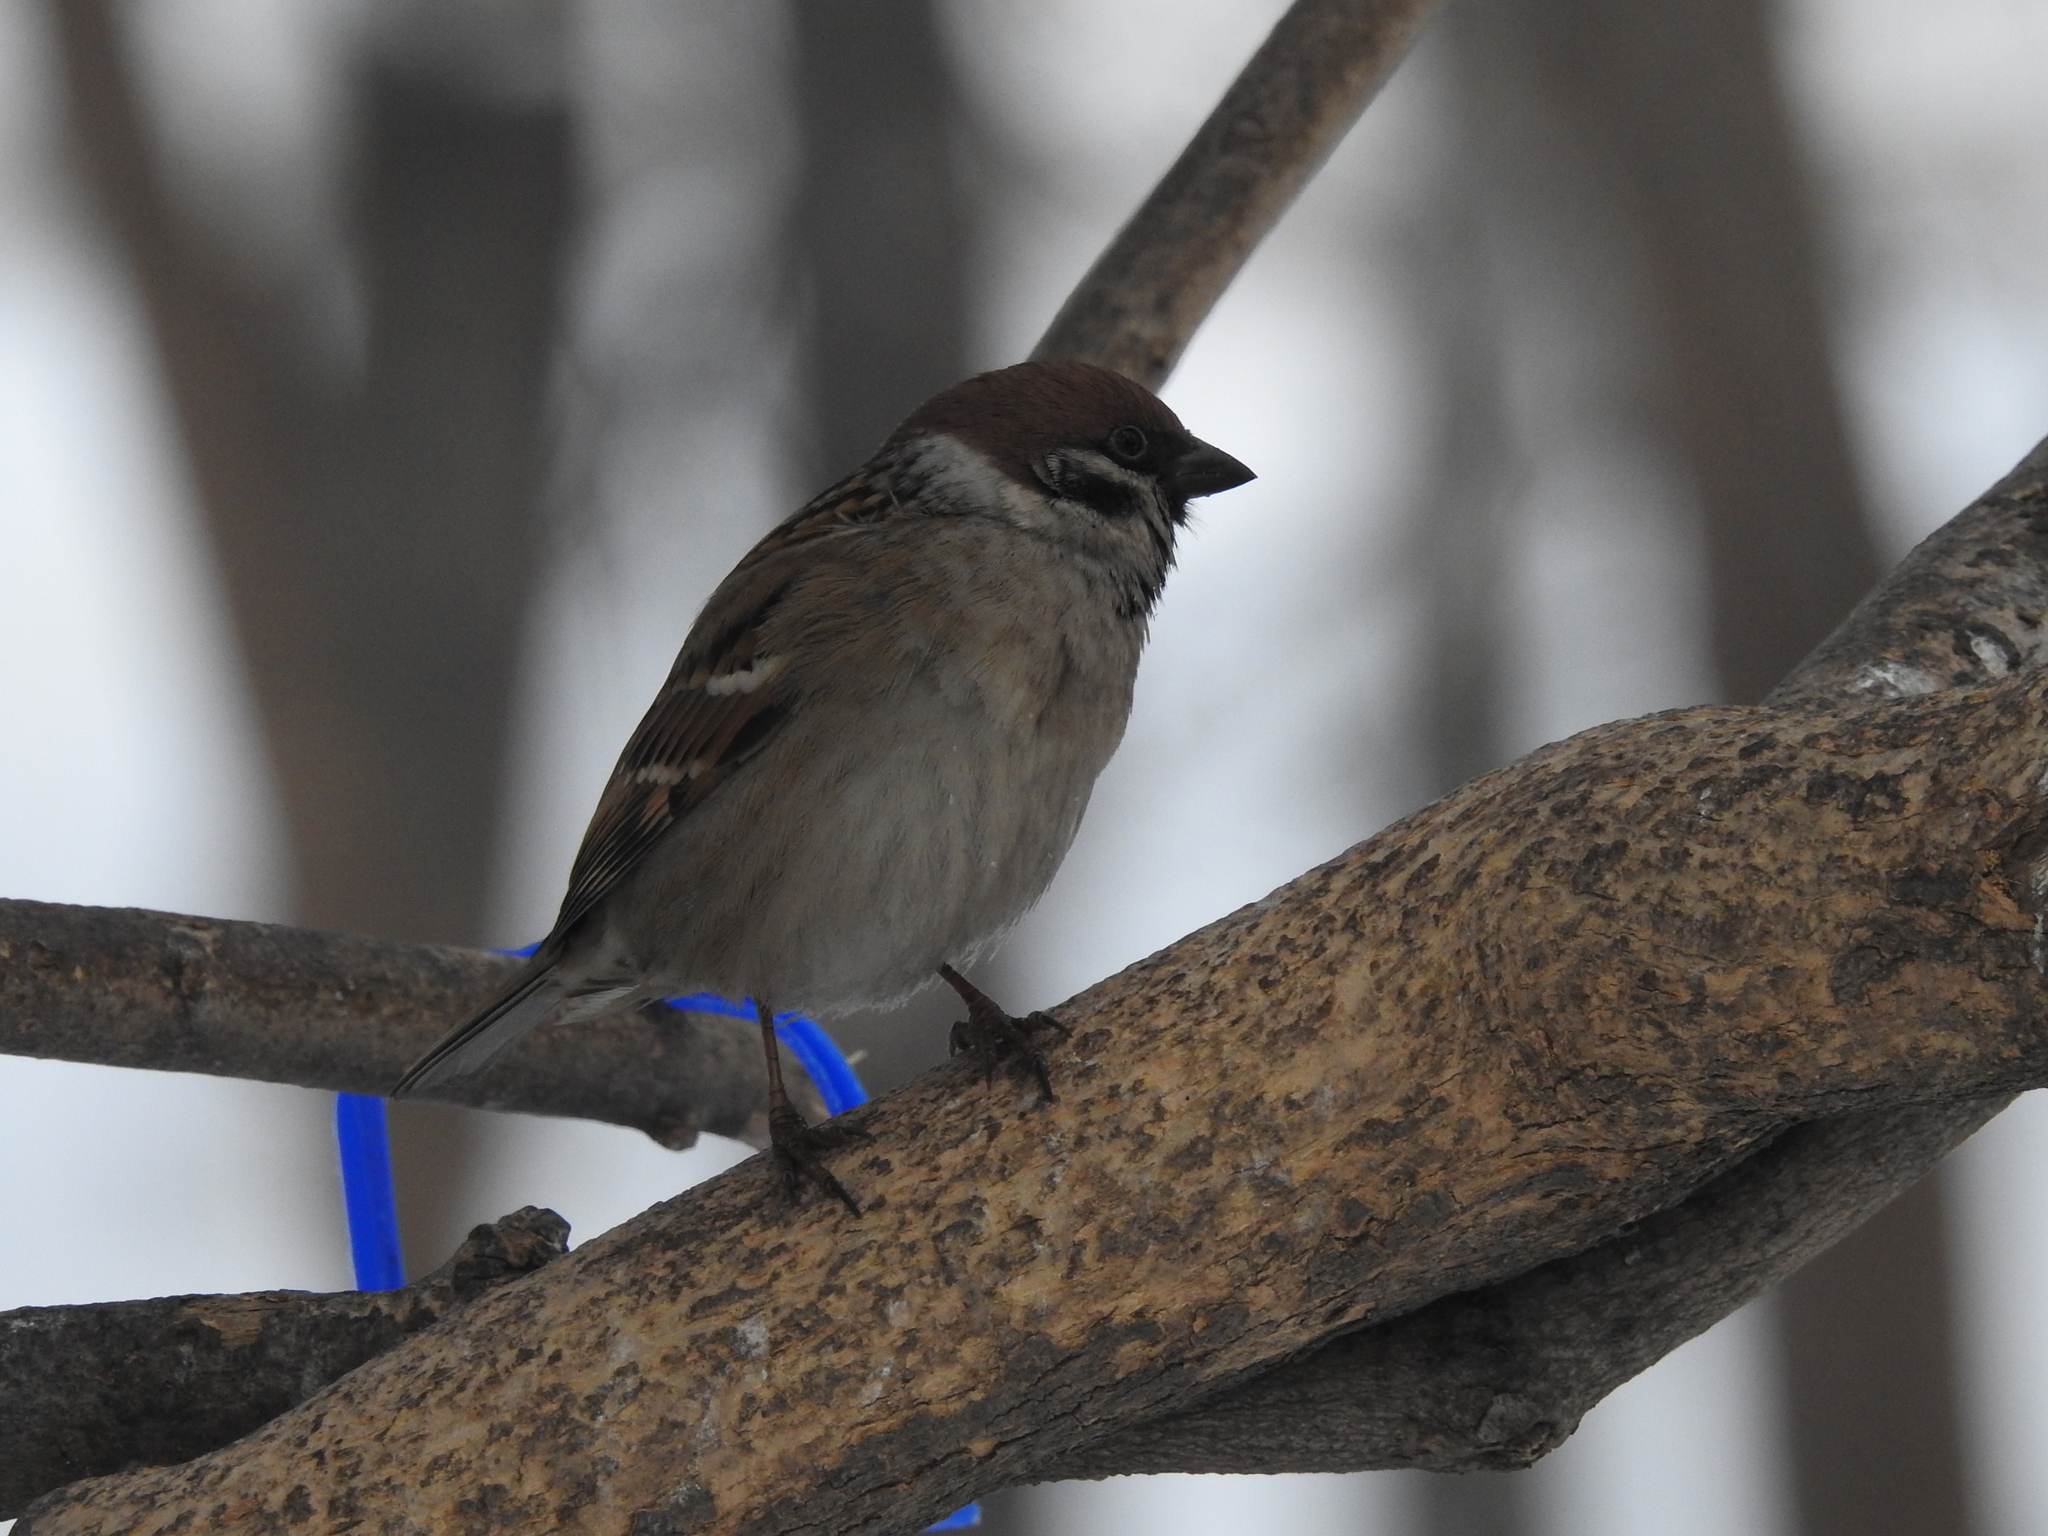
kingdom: Animalia
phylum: Chordata
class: Aves
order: Passeriformes
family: Passeridae
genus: Passer
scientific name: Passer montanus
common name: Eurasian tree sparrow
